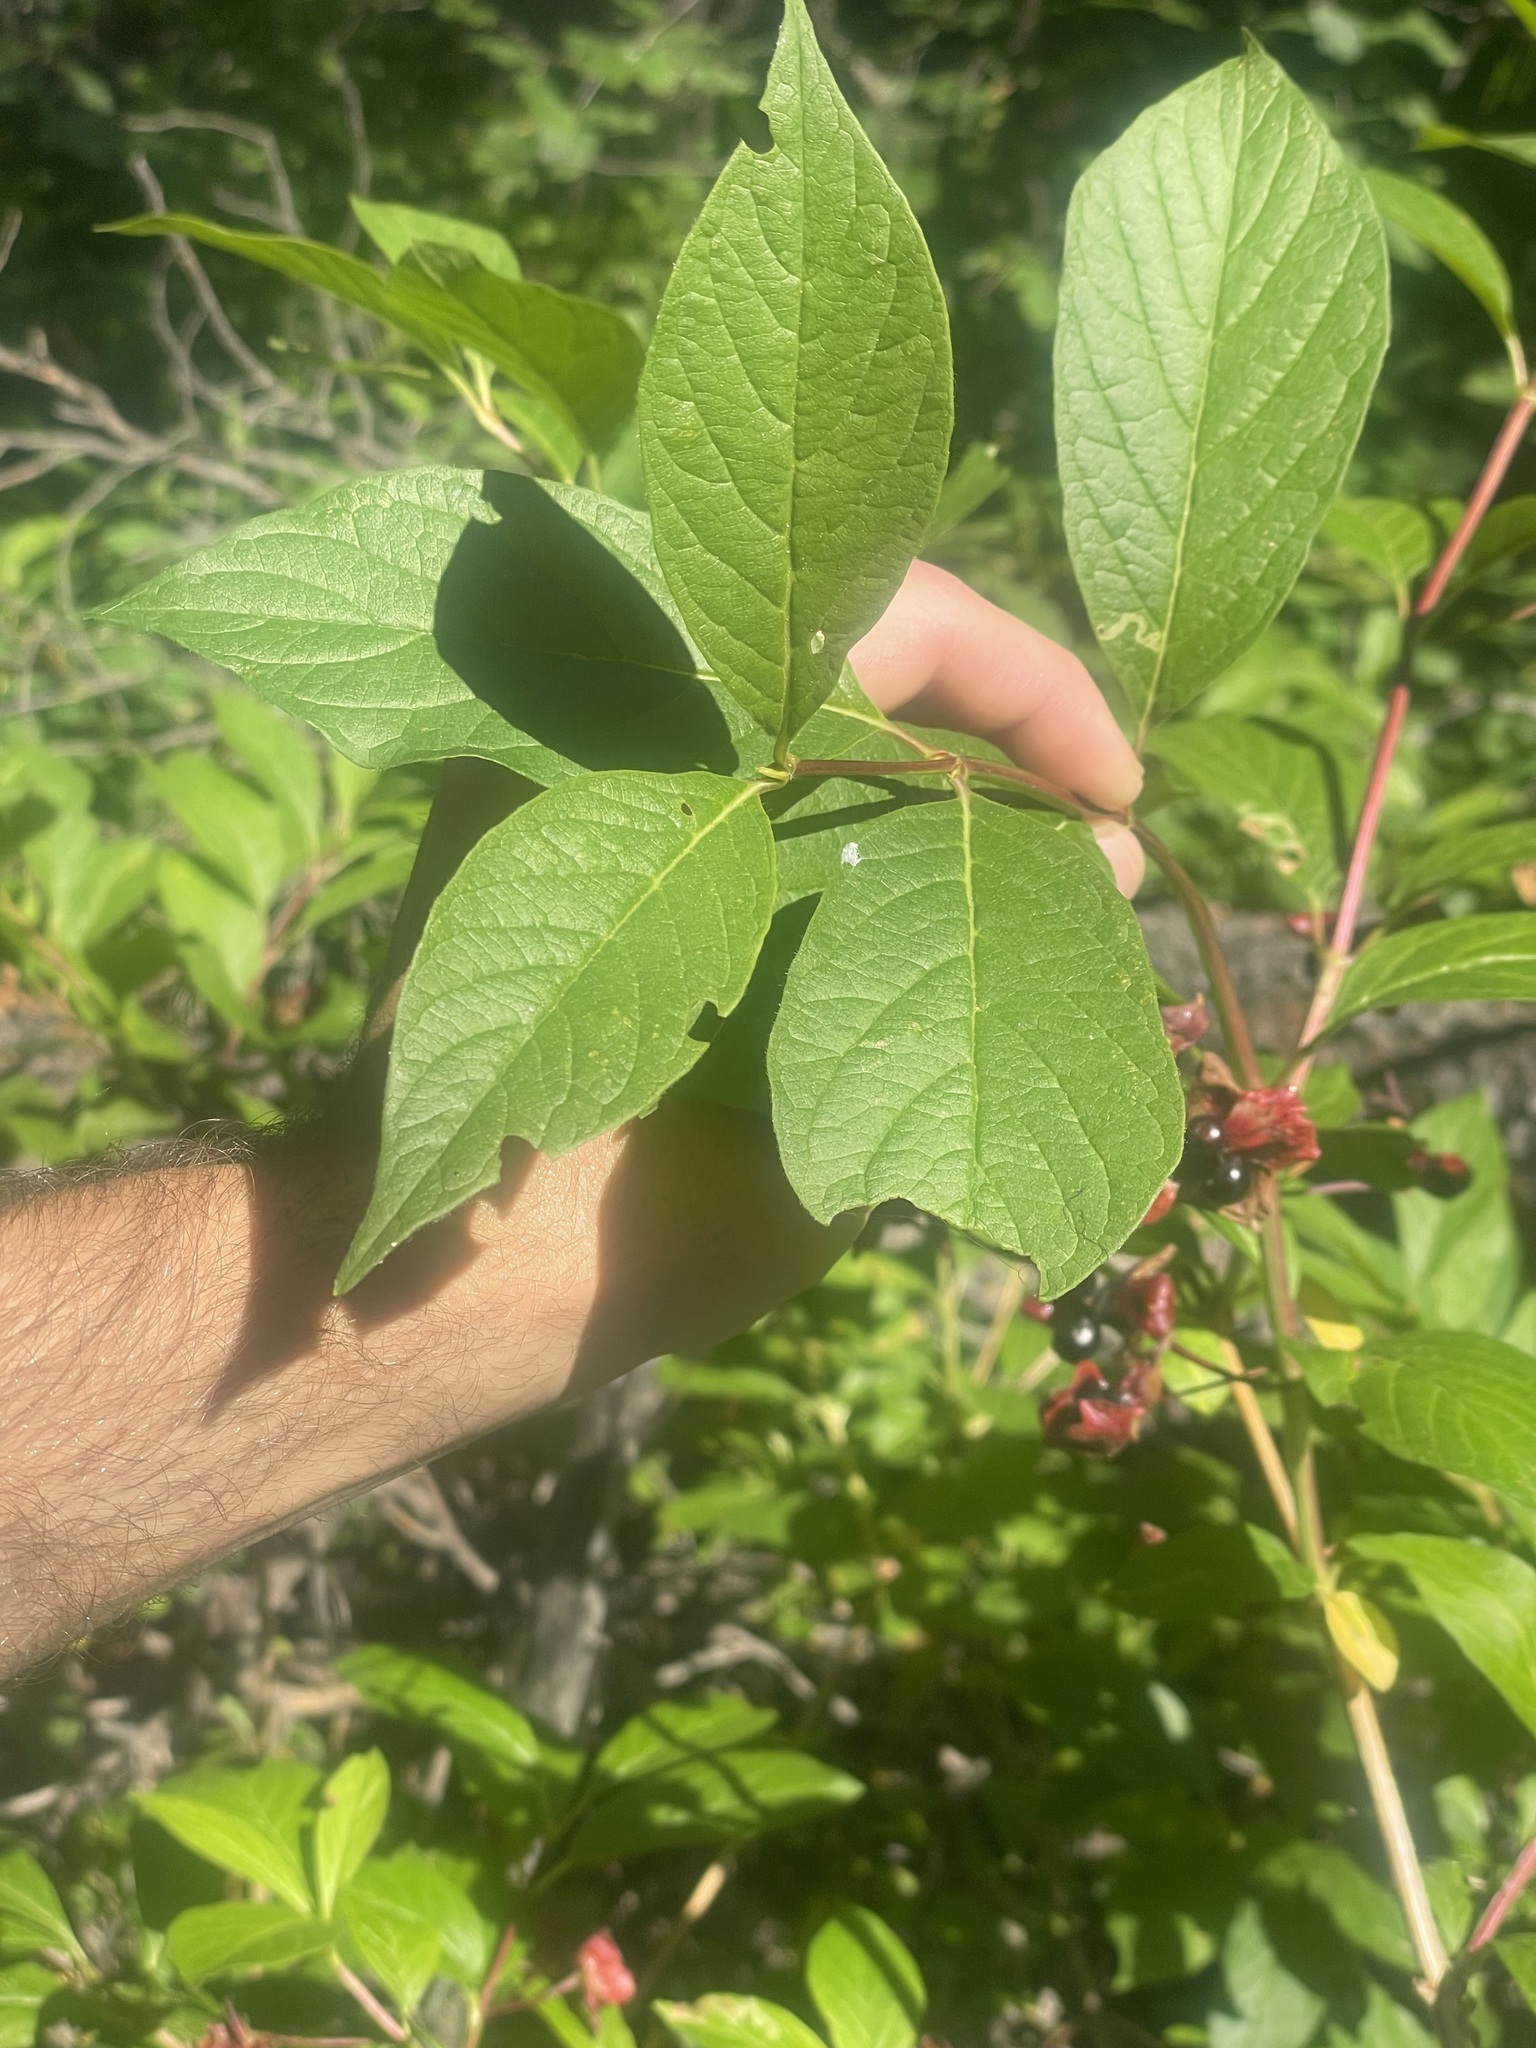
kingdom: Plantae
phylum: Tracheophyta
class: Magnoliopsida
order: Dipsacales
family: Caprifoliaceae
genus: Lonicera
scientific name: Lonicera involucrata
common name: Californian honeysuckle
